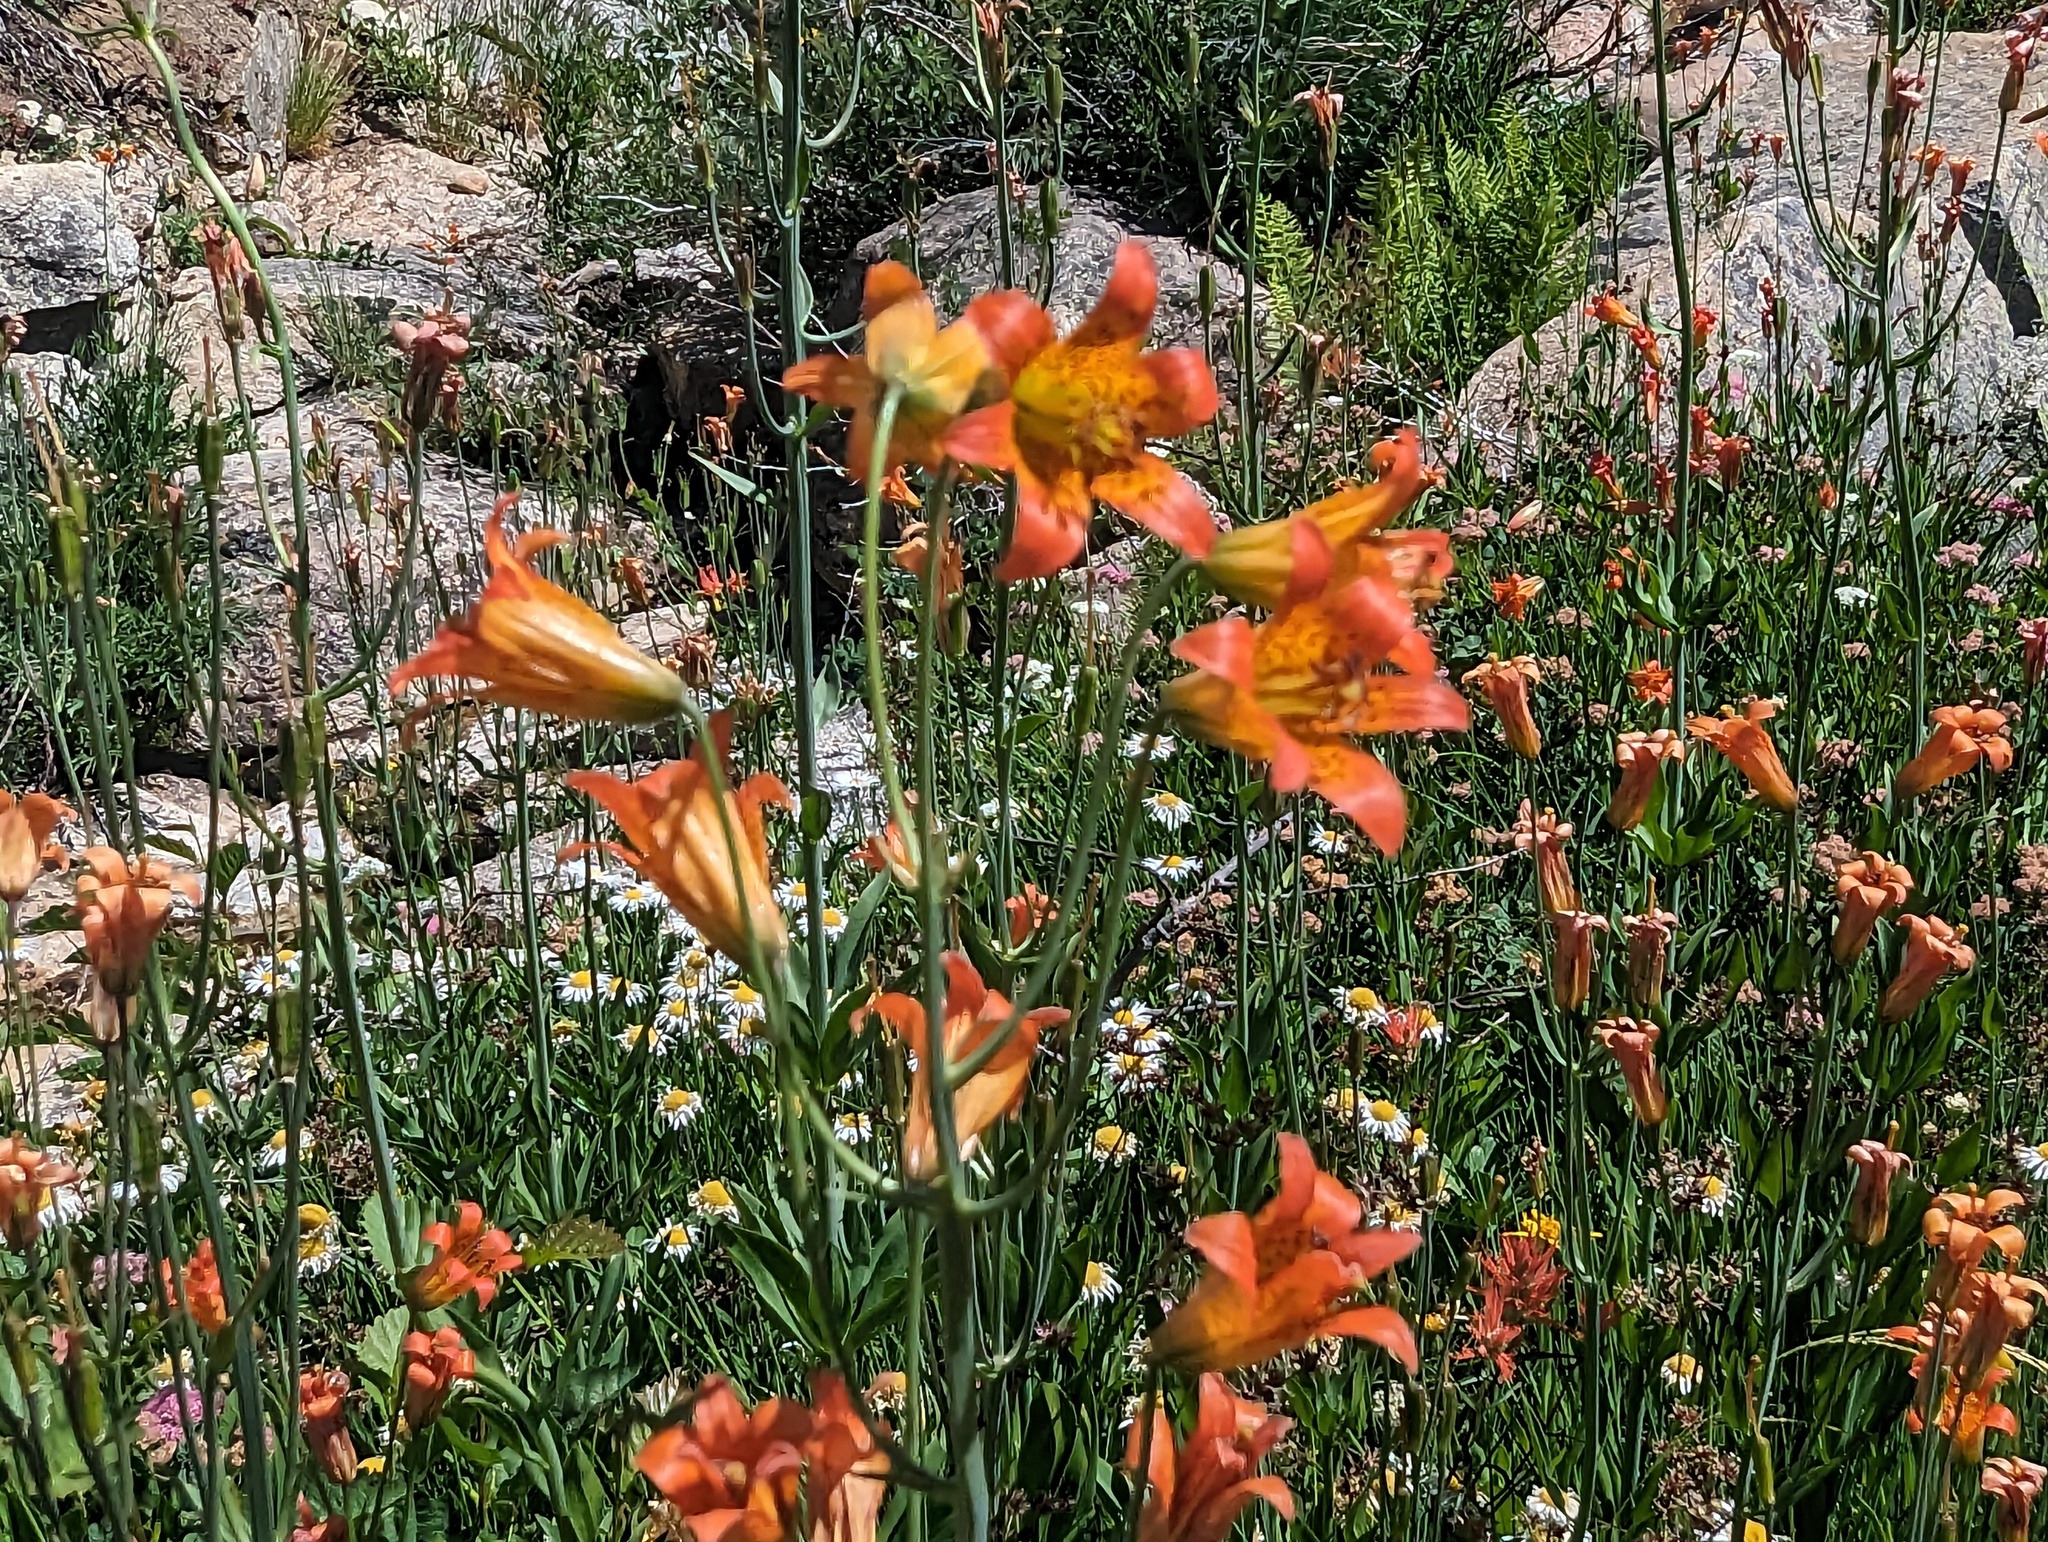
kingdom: Plantae
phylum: Tracheophyta
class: Liliopsida
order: Liliales
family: Liliaceae
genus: Lilium
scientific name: Lilium parvum
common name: Alpine lily
